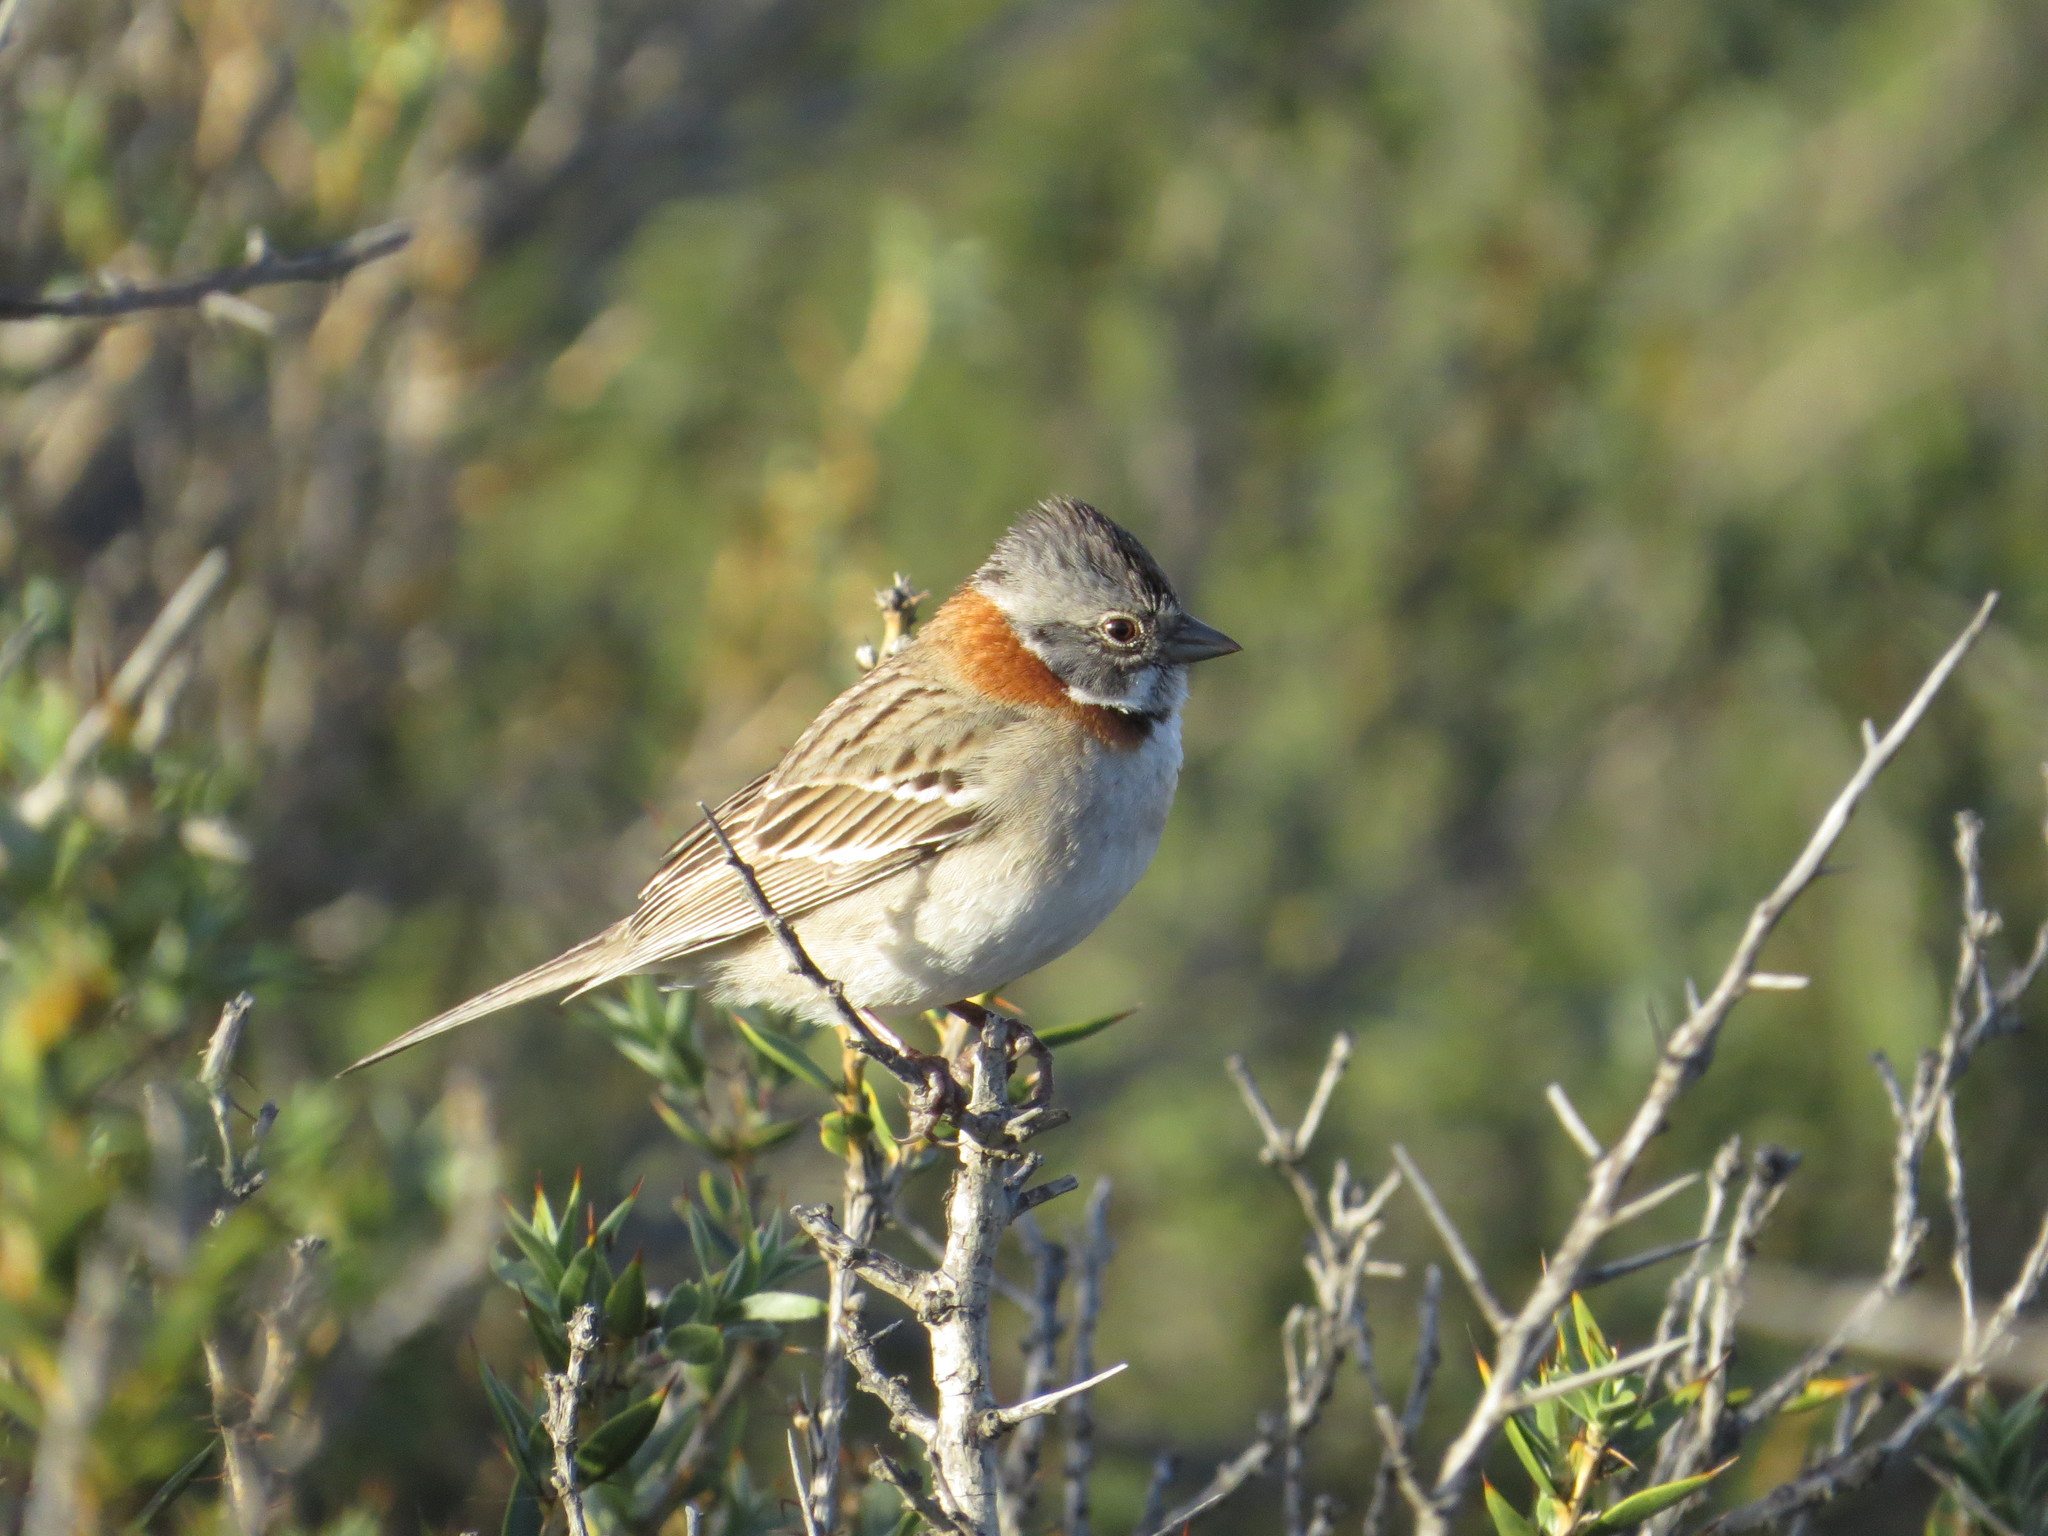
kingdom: Animalia
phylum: Chordata
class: Aves
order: Passeriformes
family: Passerellidae
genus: Zonotrichia
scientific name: Zonotrichia capensis
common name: Rufous-collared sparrow
